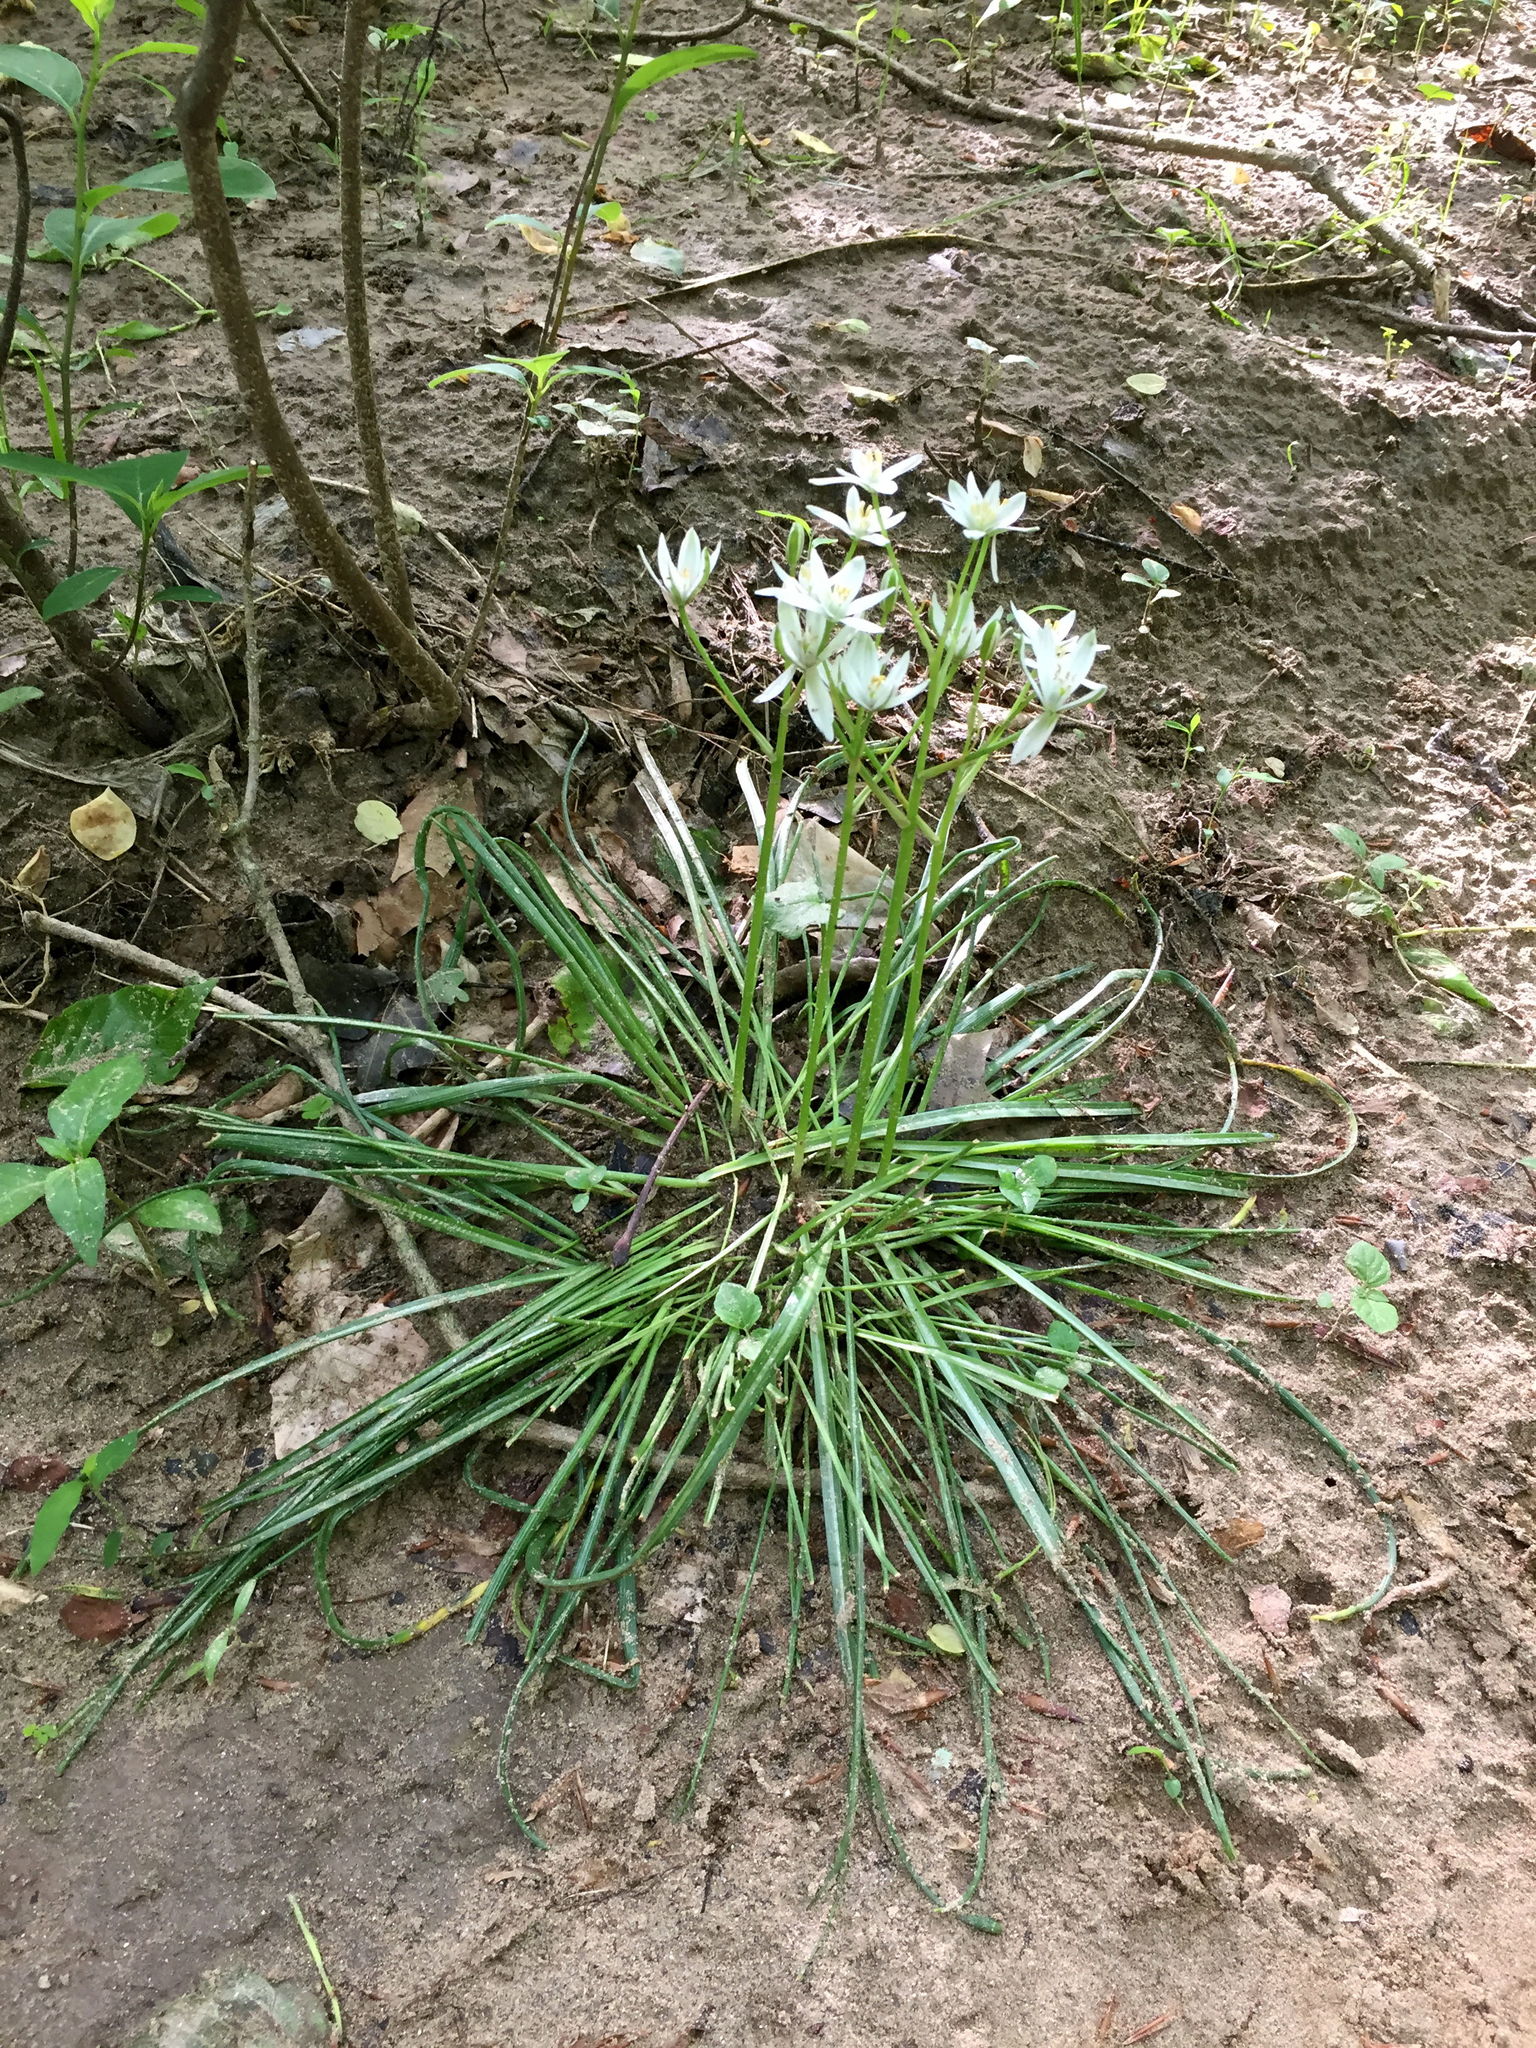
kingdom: Plantae
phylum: Tracheophyta
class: Liliopsida
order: Asparagales
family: Asparagaceae
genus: Ornithogalum
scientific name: Ornithogalum umbellatum
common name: Garden star-of-bethlehem
